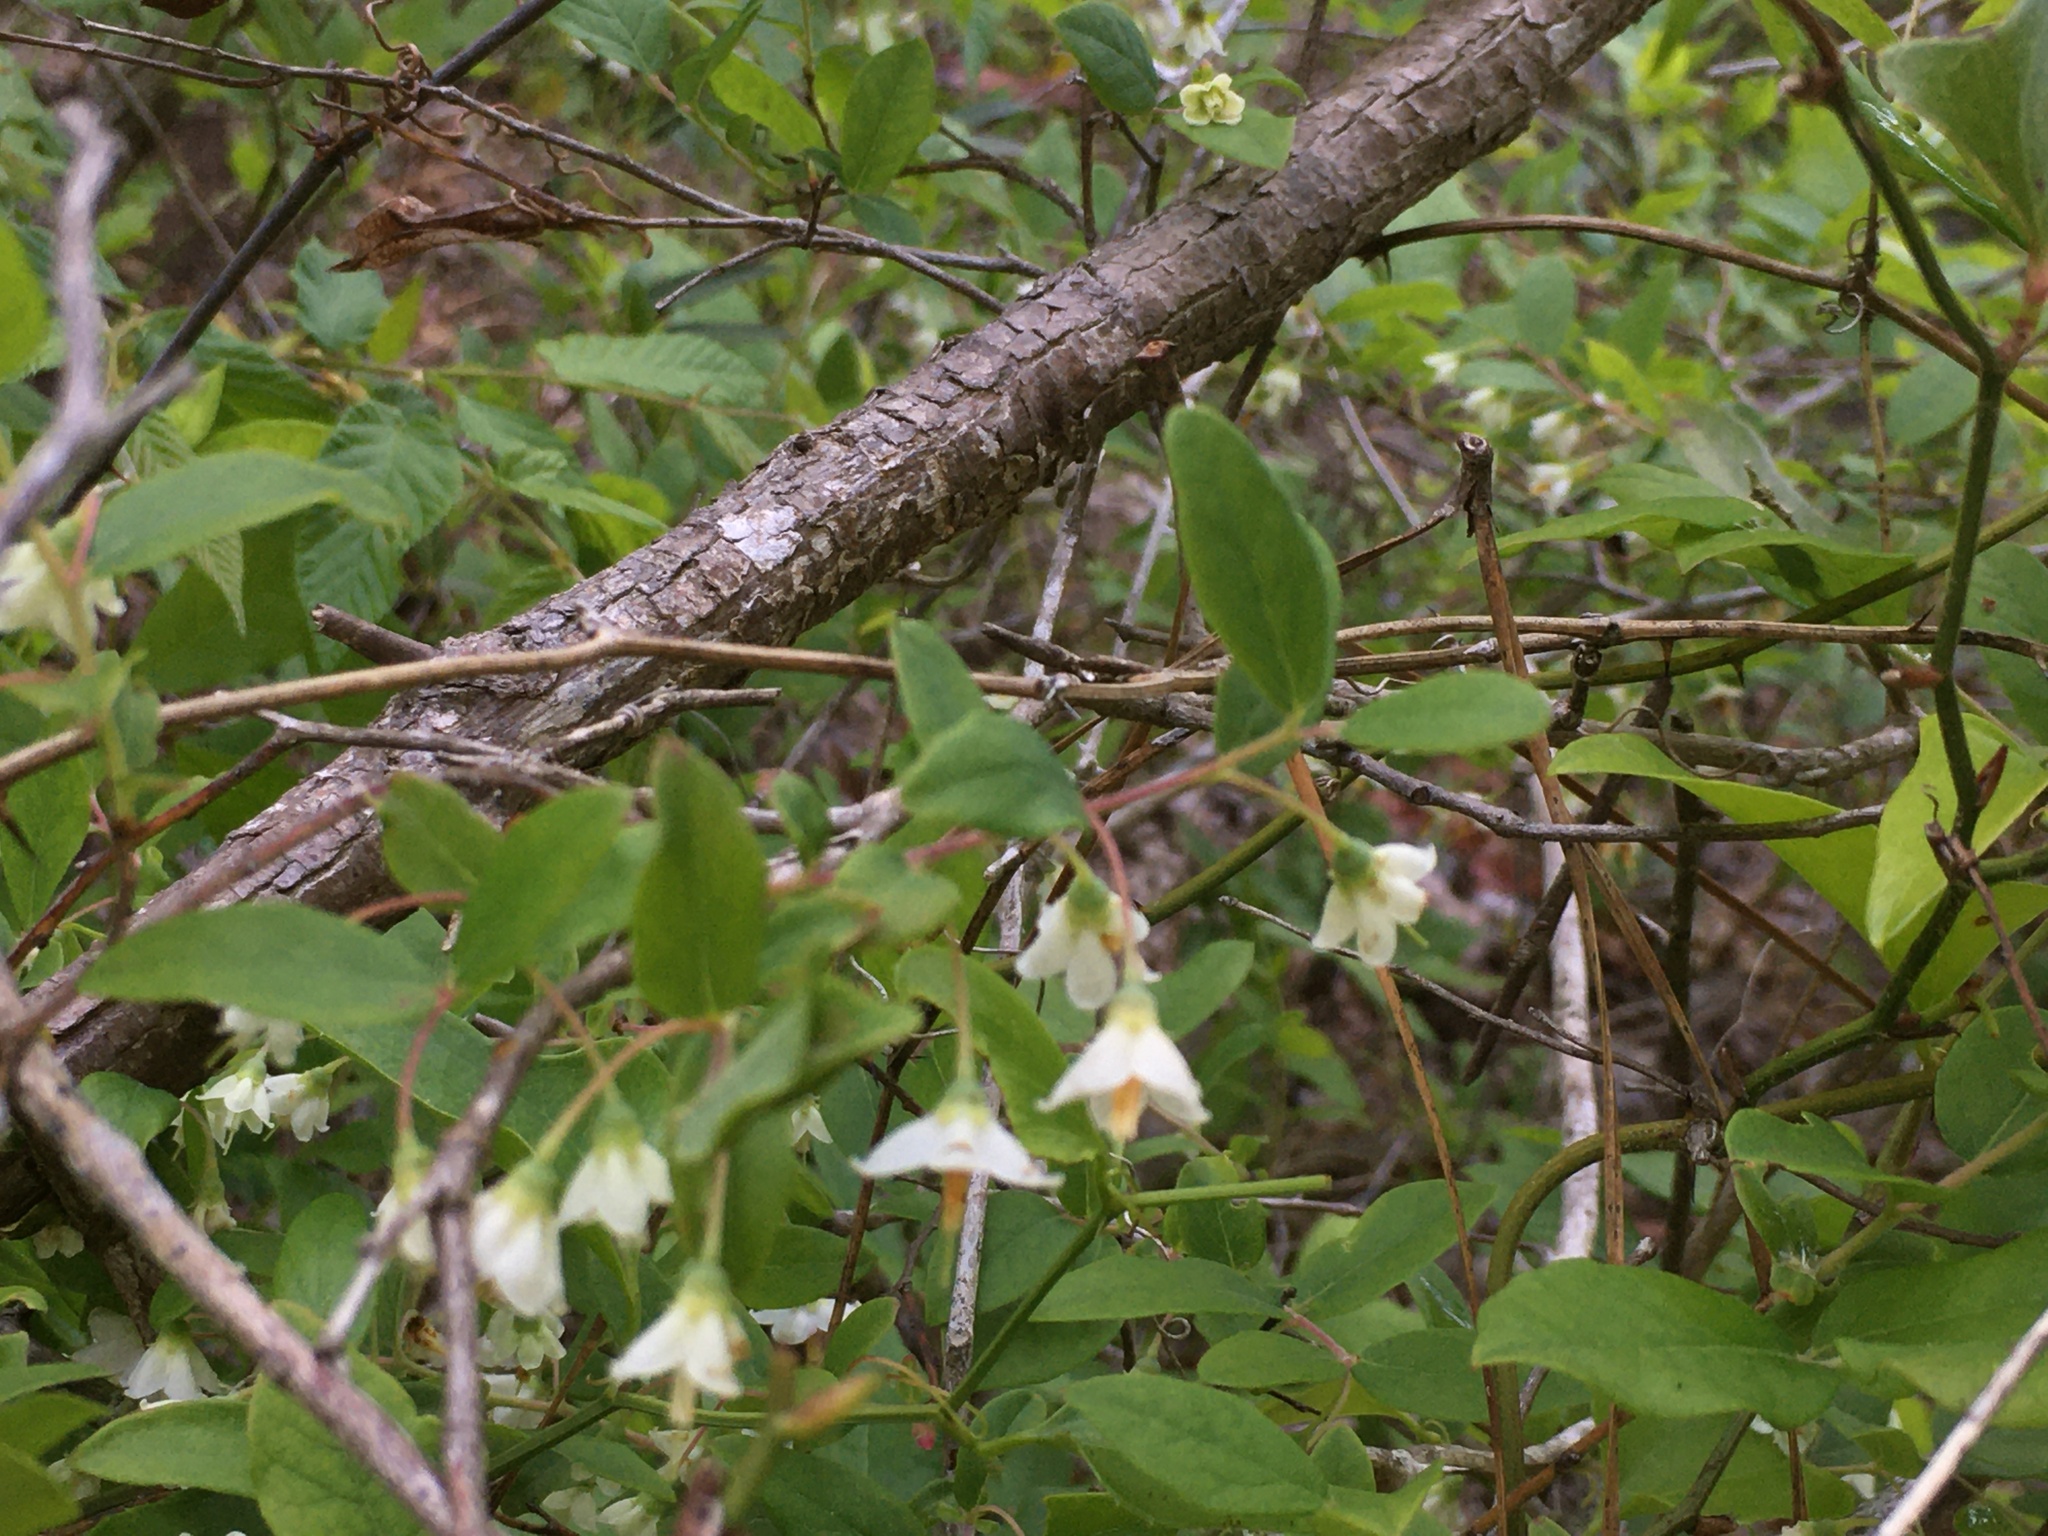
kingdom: Plantae
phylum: Tracheophyta
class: Magnoliopsida
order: Ericales
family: Ericaceae
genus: Vaccinium
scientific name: Vaccinium stamineum
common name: Deerberry
